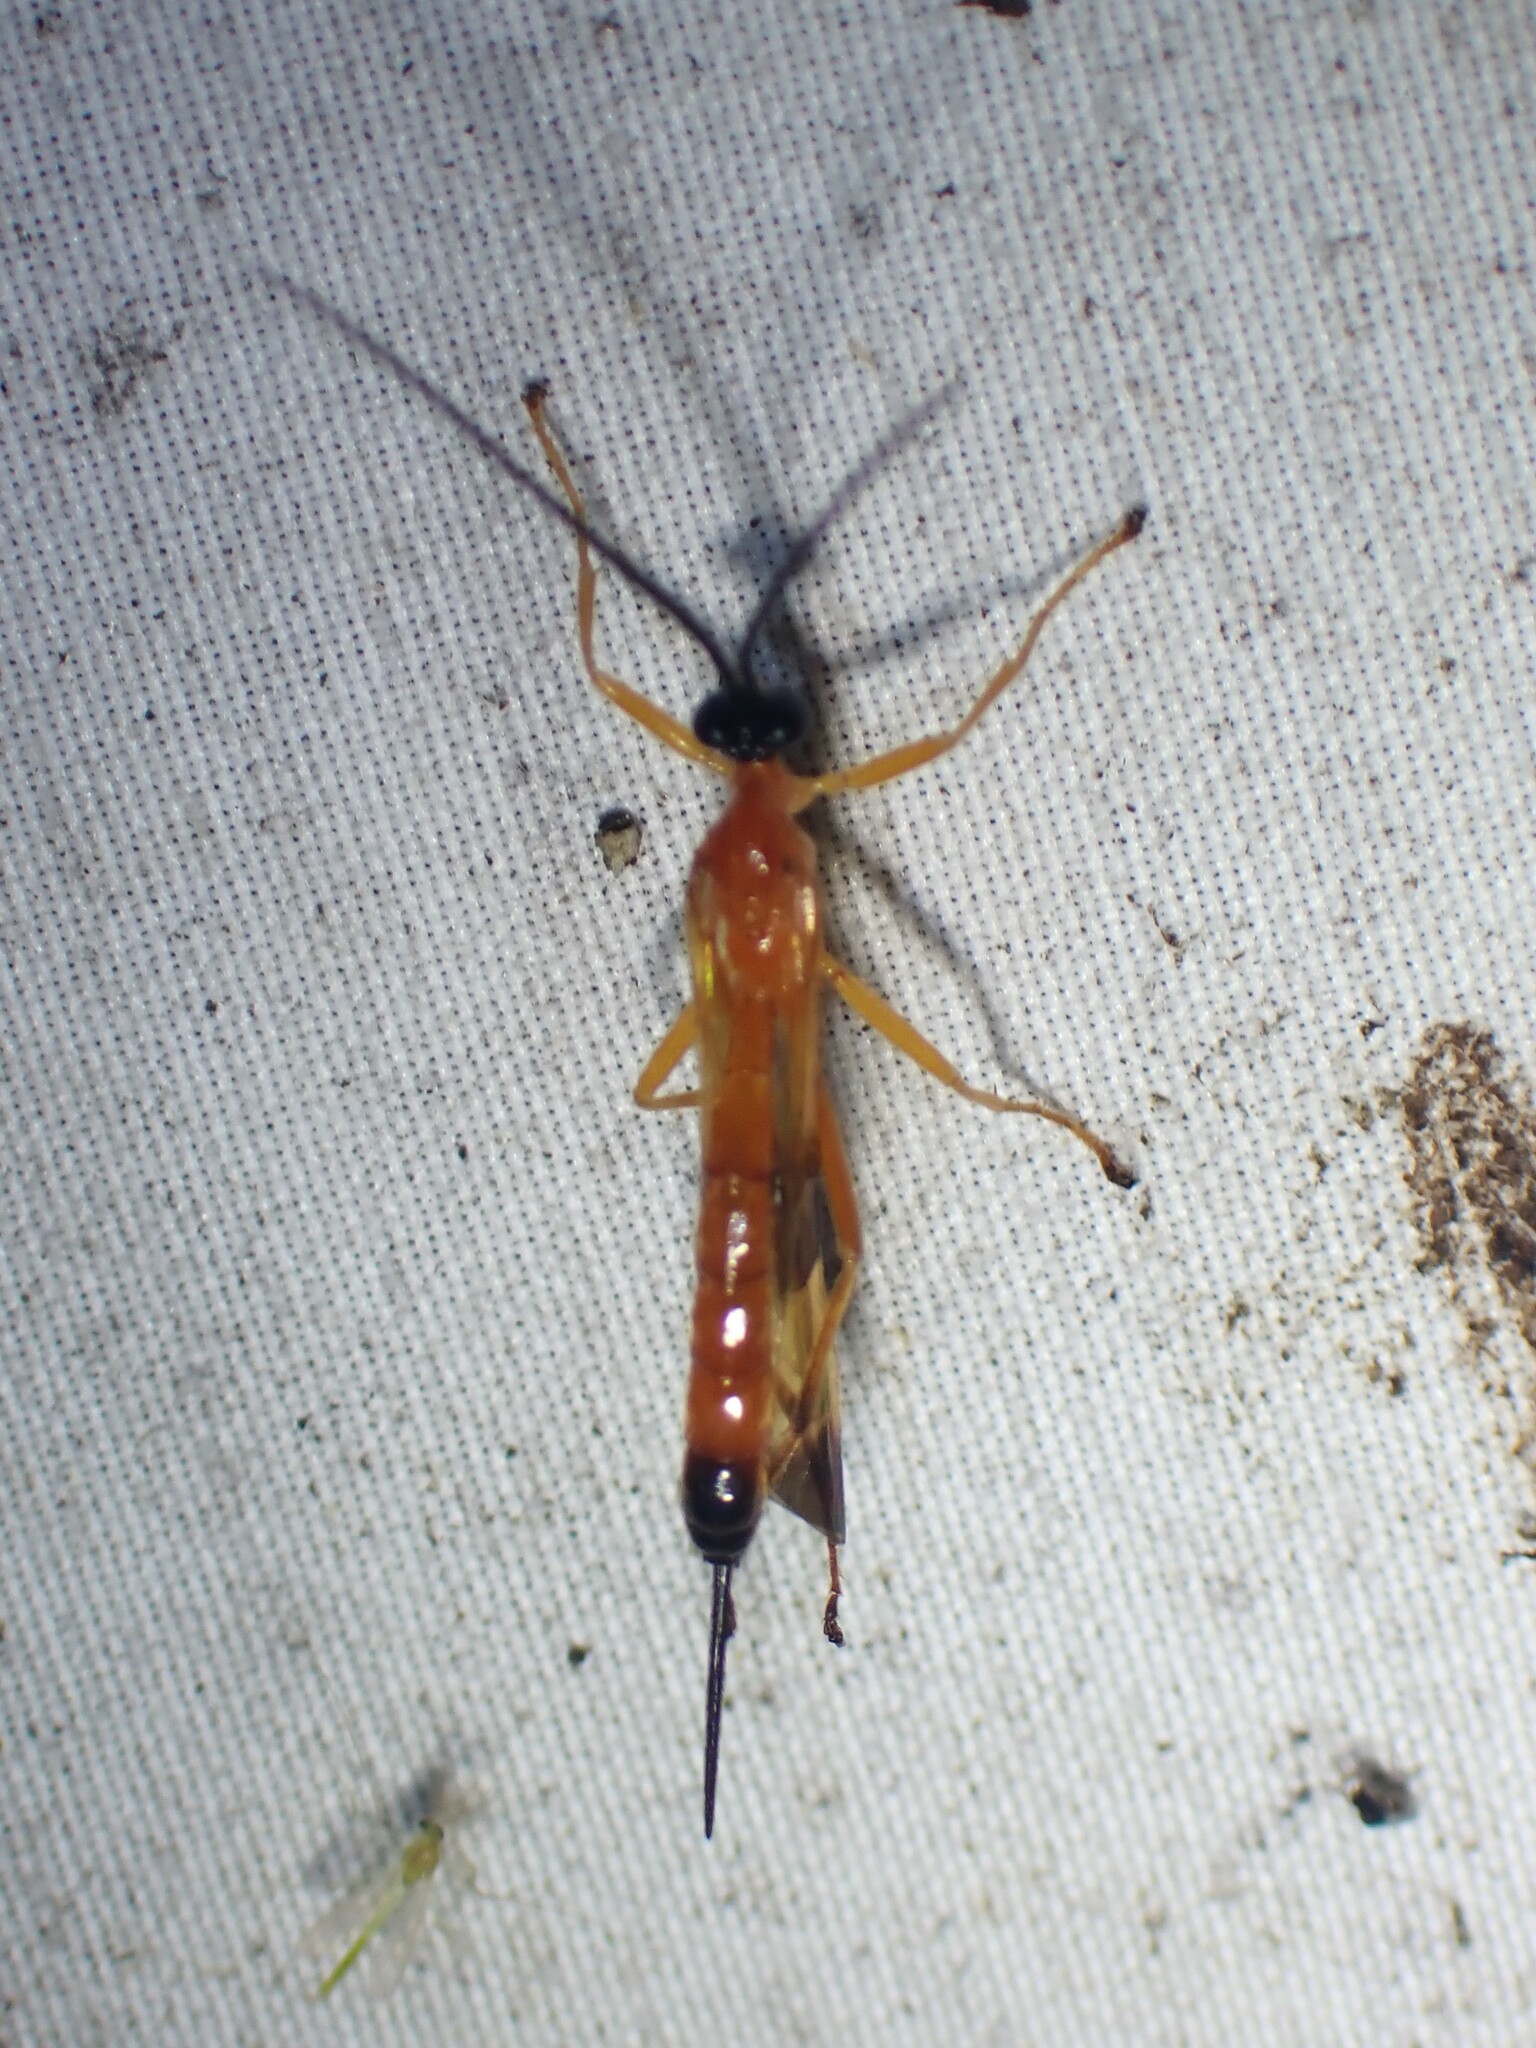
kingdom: Animalia
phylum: Arthropoda
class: Insecta
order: Hymenoptera
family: Ichneumonidae
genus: Acrotaphus
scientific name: Acrotaphus wiltii
